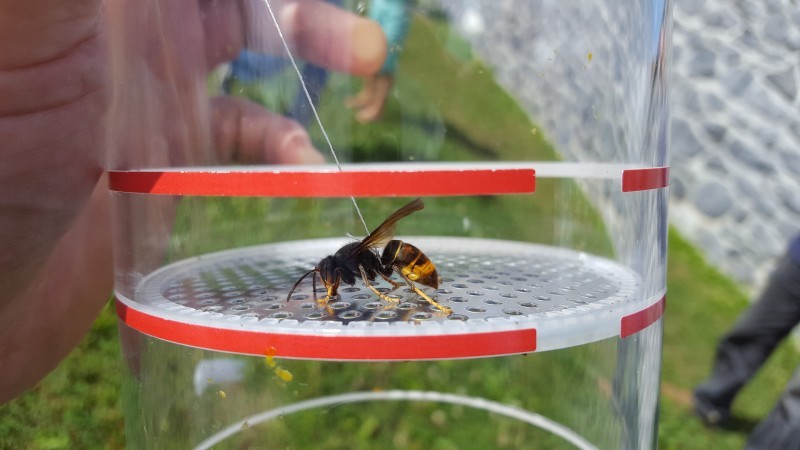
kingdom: Animalia
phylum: Arthropoda
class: Insecta
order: Hymenoptera
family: Vespidae
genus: Vespa
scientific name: Vespa velutina
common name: Asian hornet
